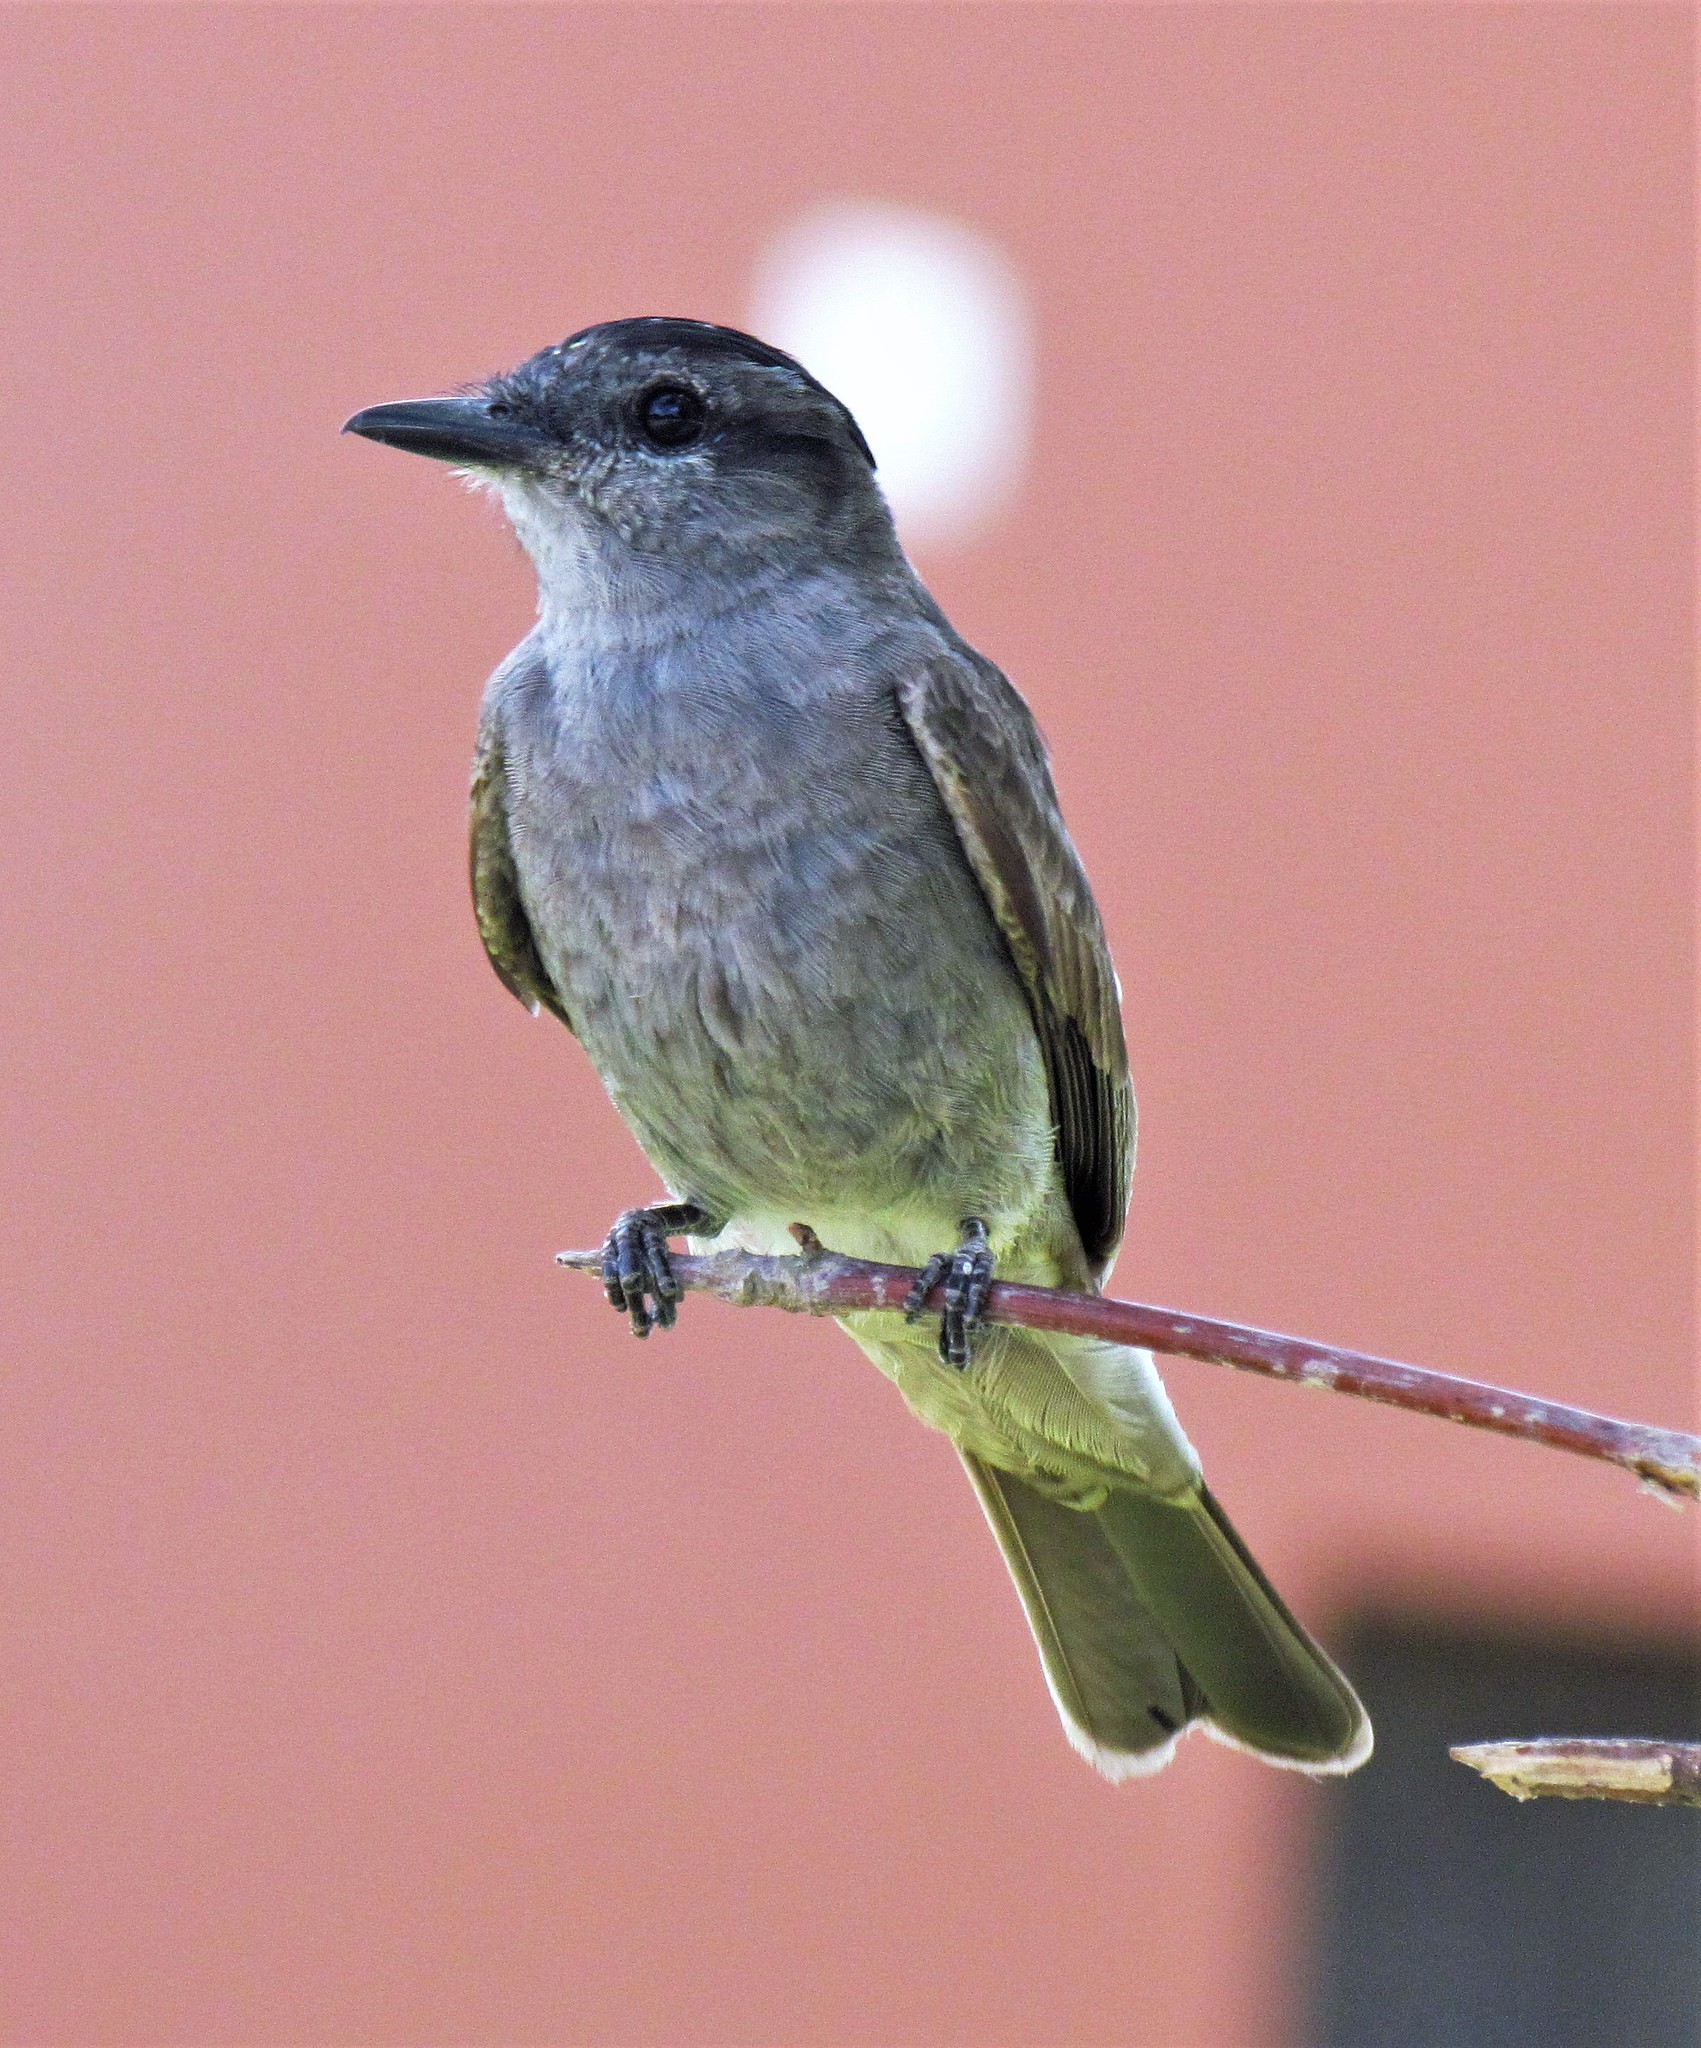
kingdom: Animalia
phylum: Chordata
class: Aves
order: Passeriformes
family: Tyrannidae
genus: Empidonomus
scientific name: Empidonomus aurantioatrocristatus
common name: Crowned slaty flycatcher
